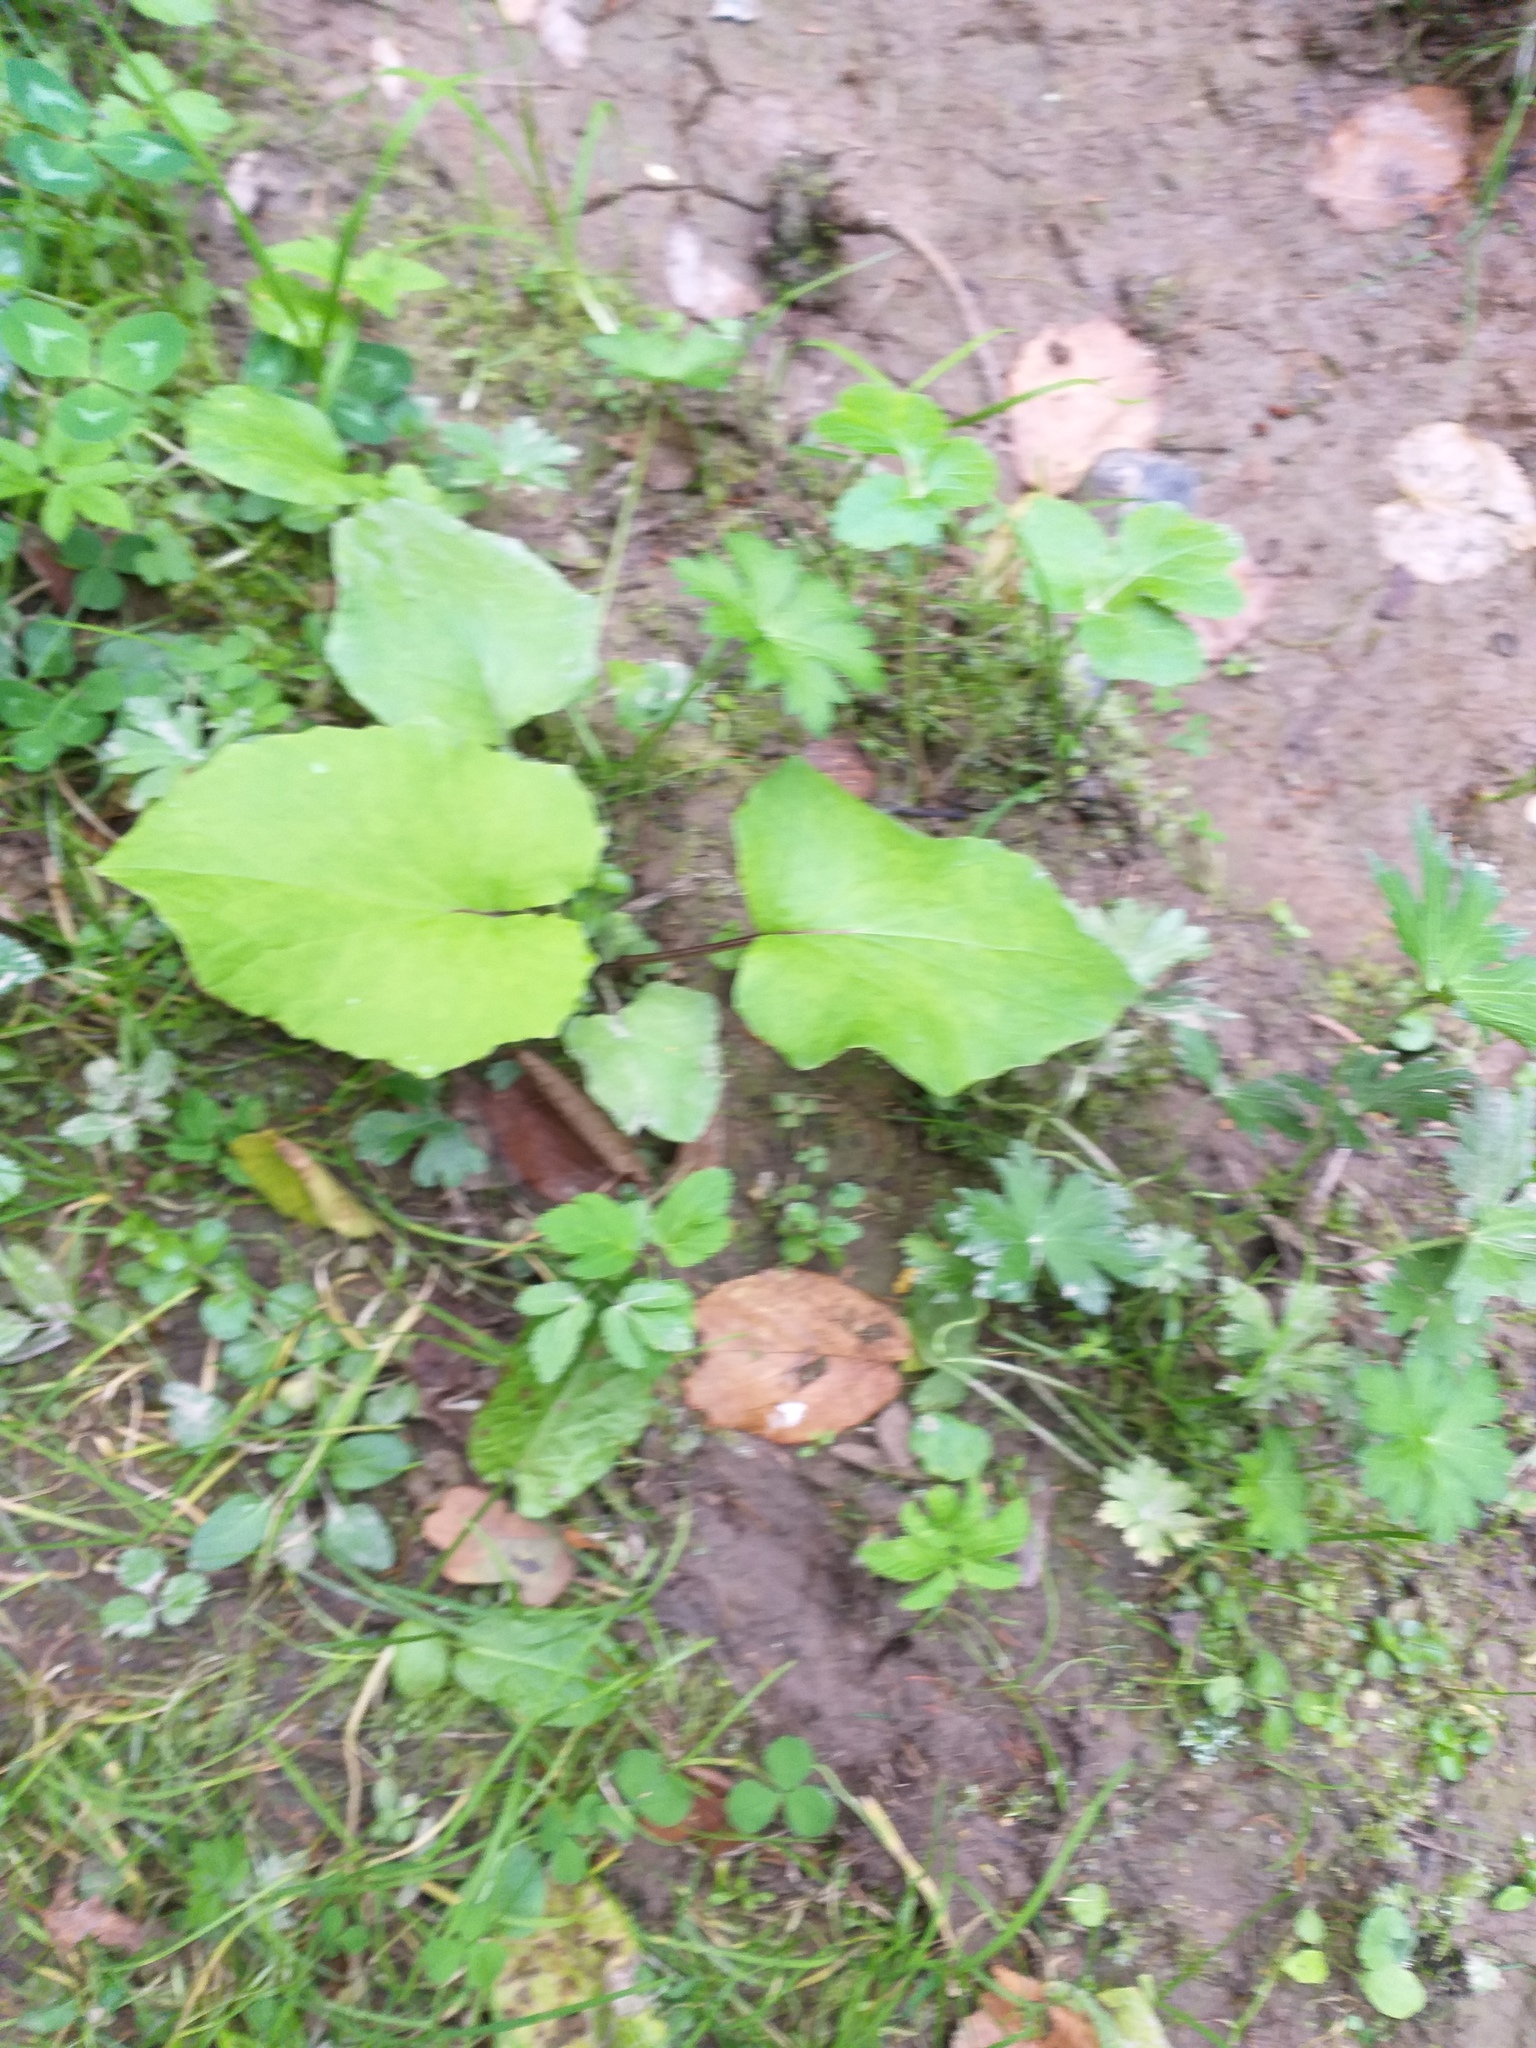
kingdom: Plantae
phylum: Tracheophyta
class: Magnoliopsida
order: Asterales
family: Asteraceae
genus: Tussilago
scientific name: Tussilago farfara
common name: Coltsfoot
